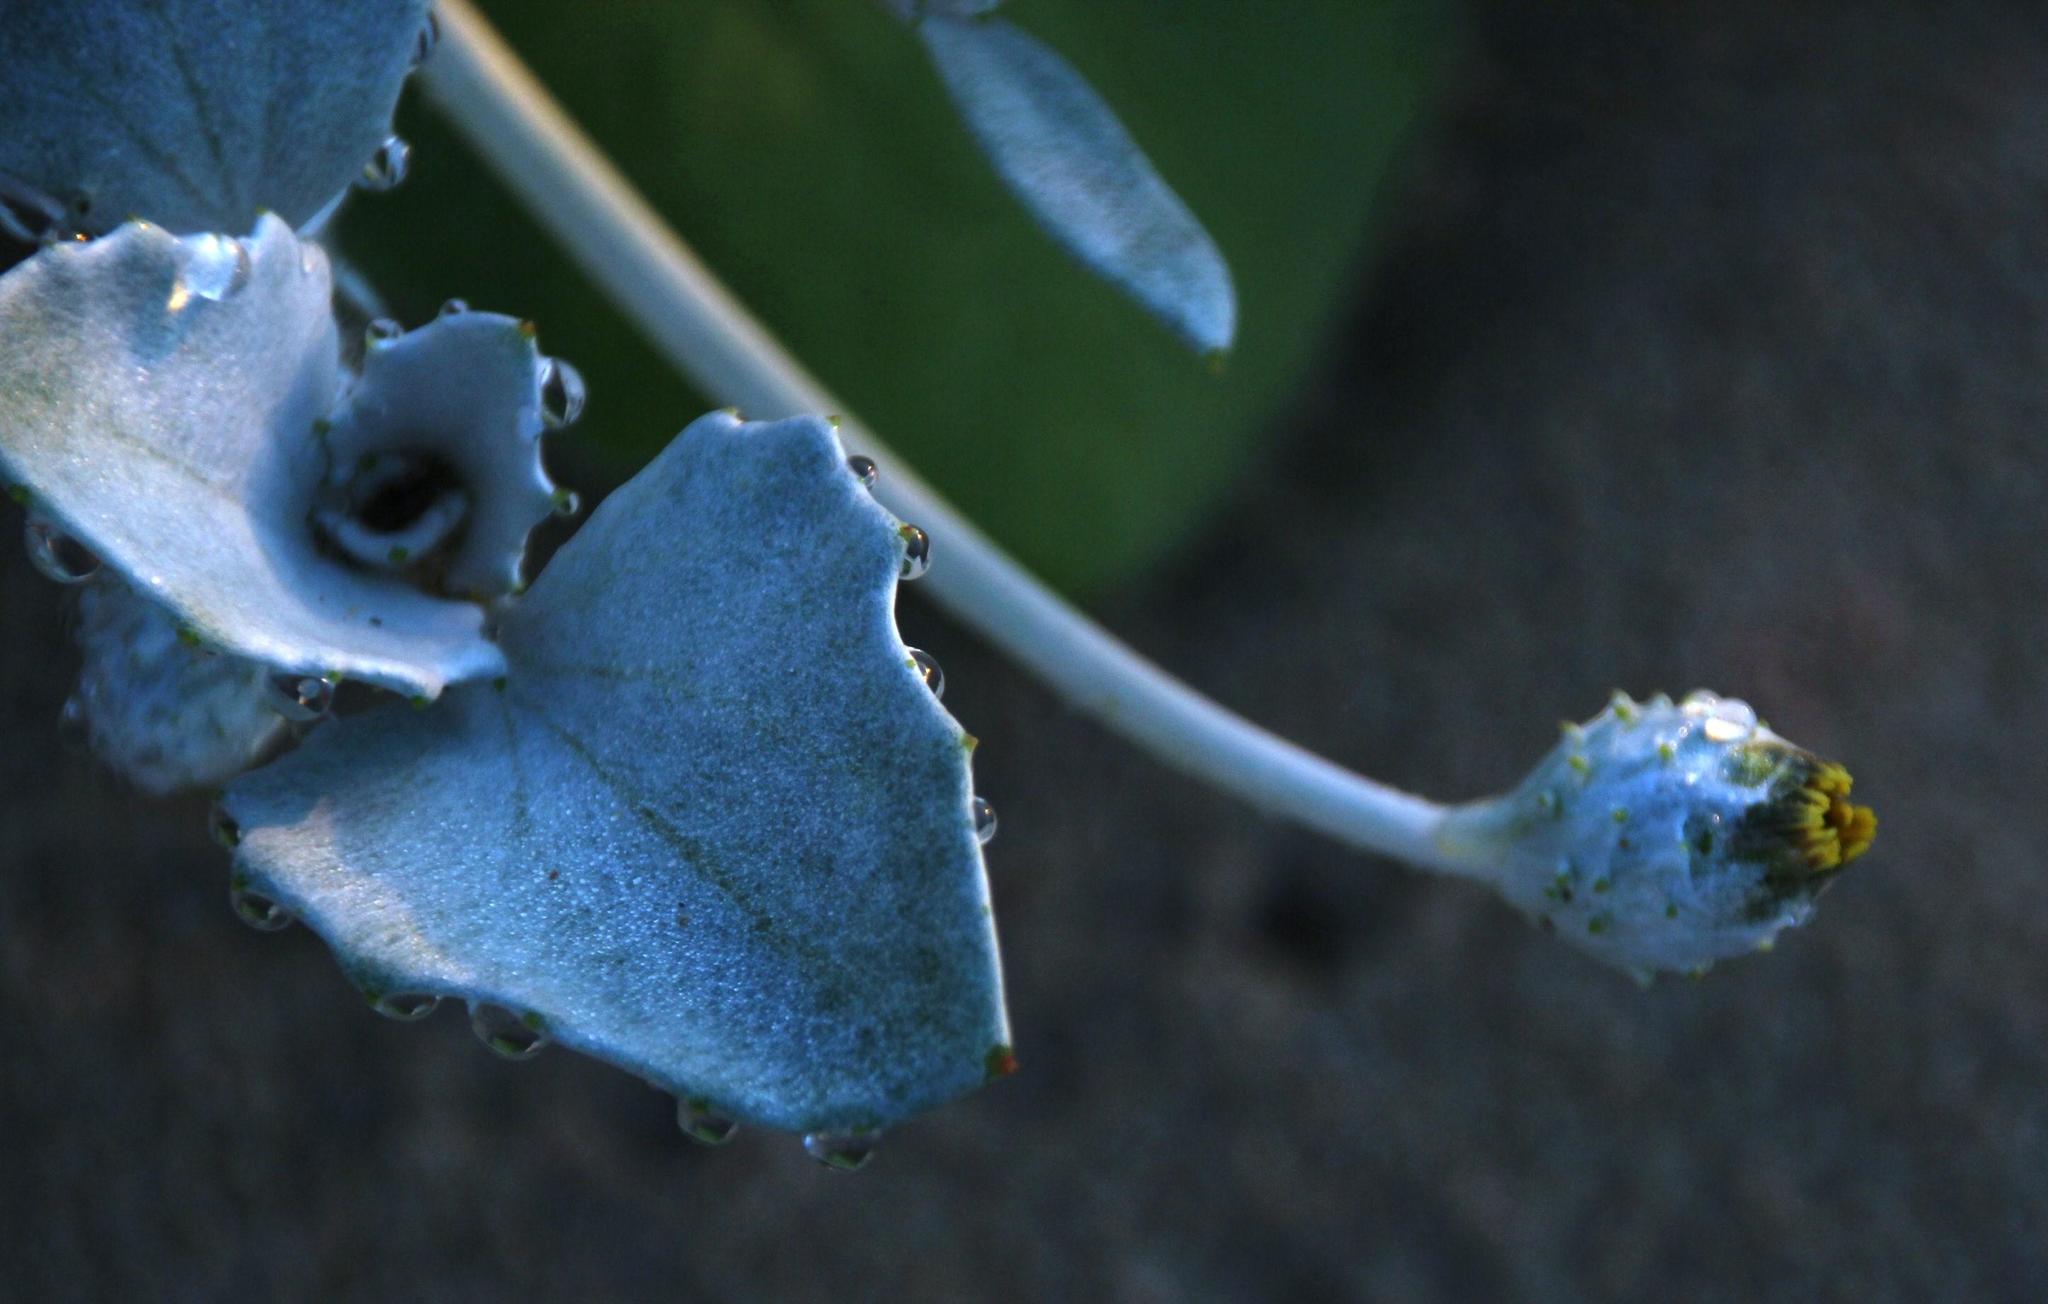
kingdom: Plantae
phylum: Tracheophyta
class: Magnoliopsida
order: Asterales
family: Asteraceae
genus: Arctotheca
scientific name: Arctotheca populifolia
